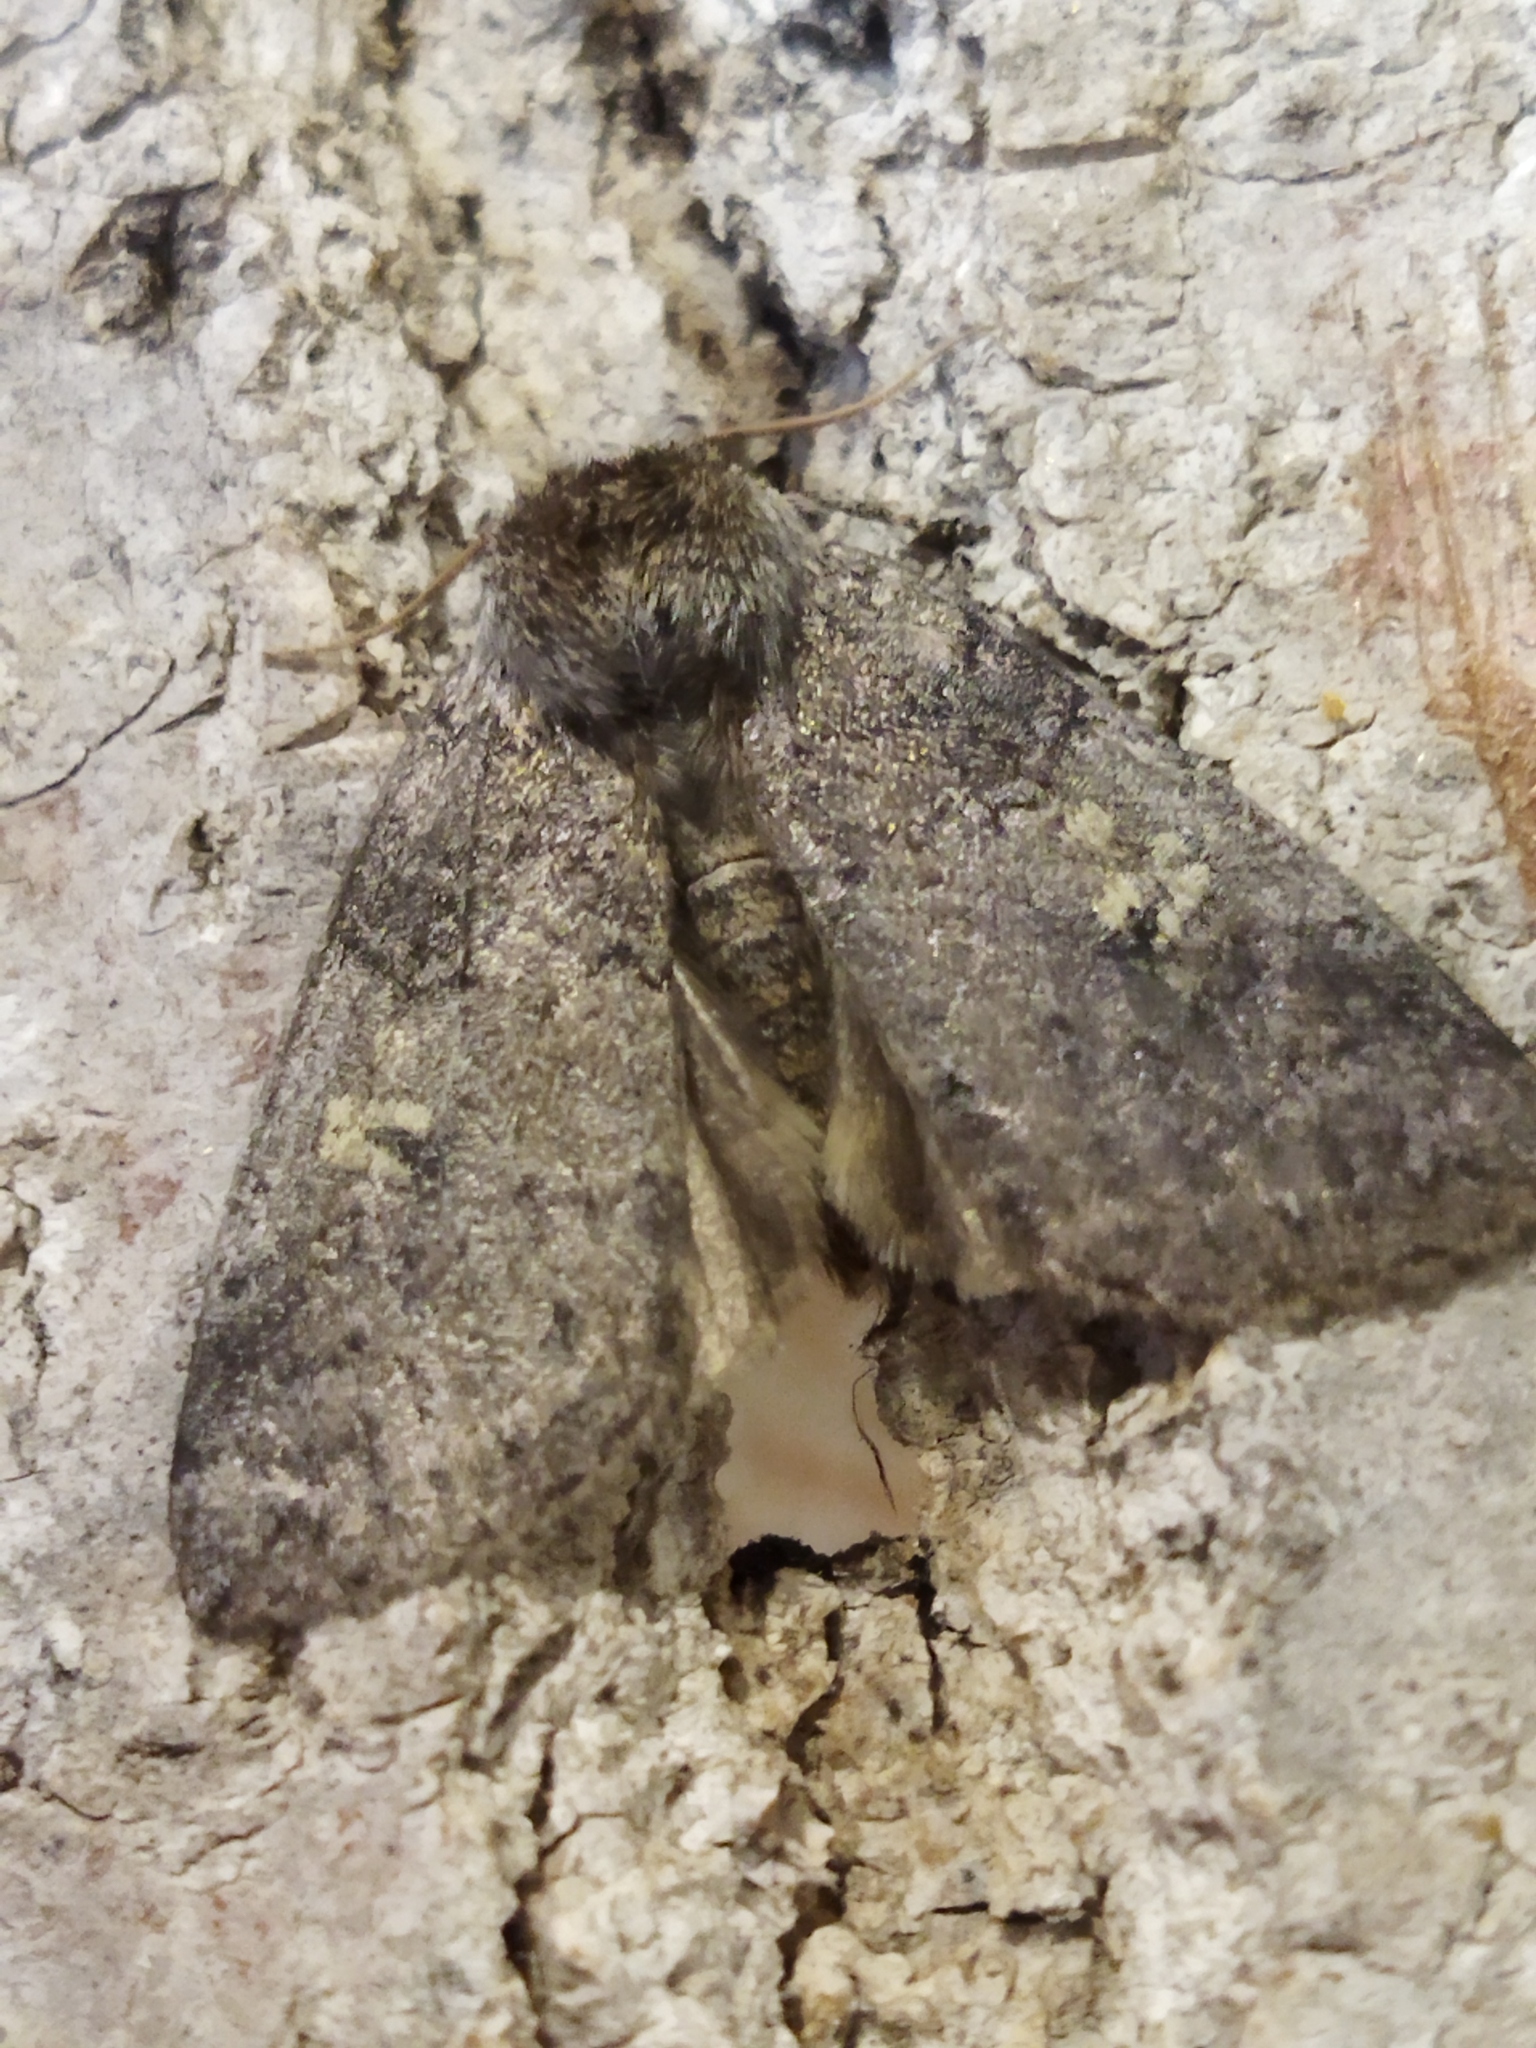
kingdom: Animalia
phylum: Arthropoda
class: Insecta
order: Lepidoptera
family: Drepanidae
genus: Tethea
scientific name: Tethea or
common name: Poplar lutestring
